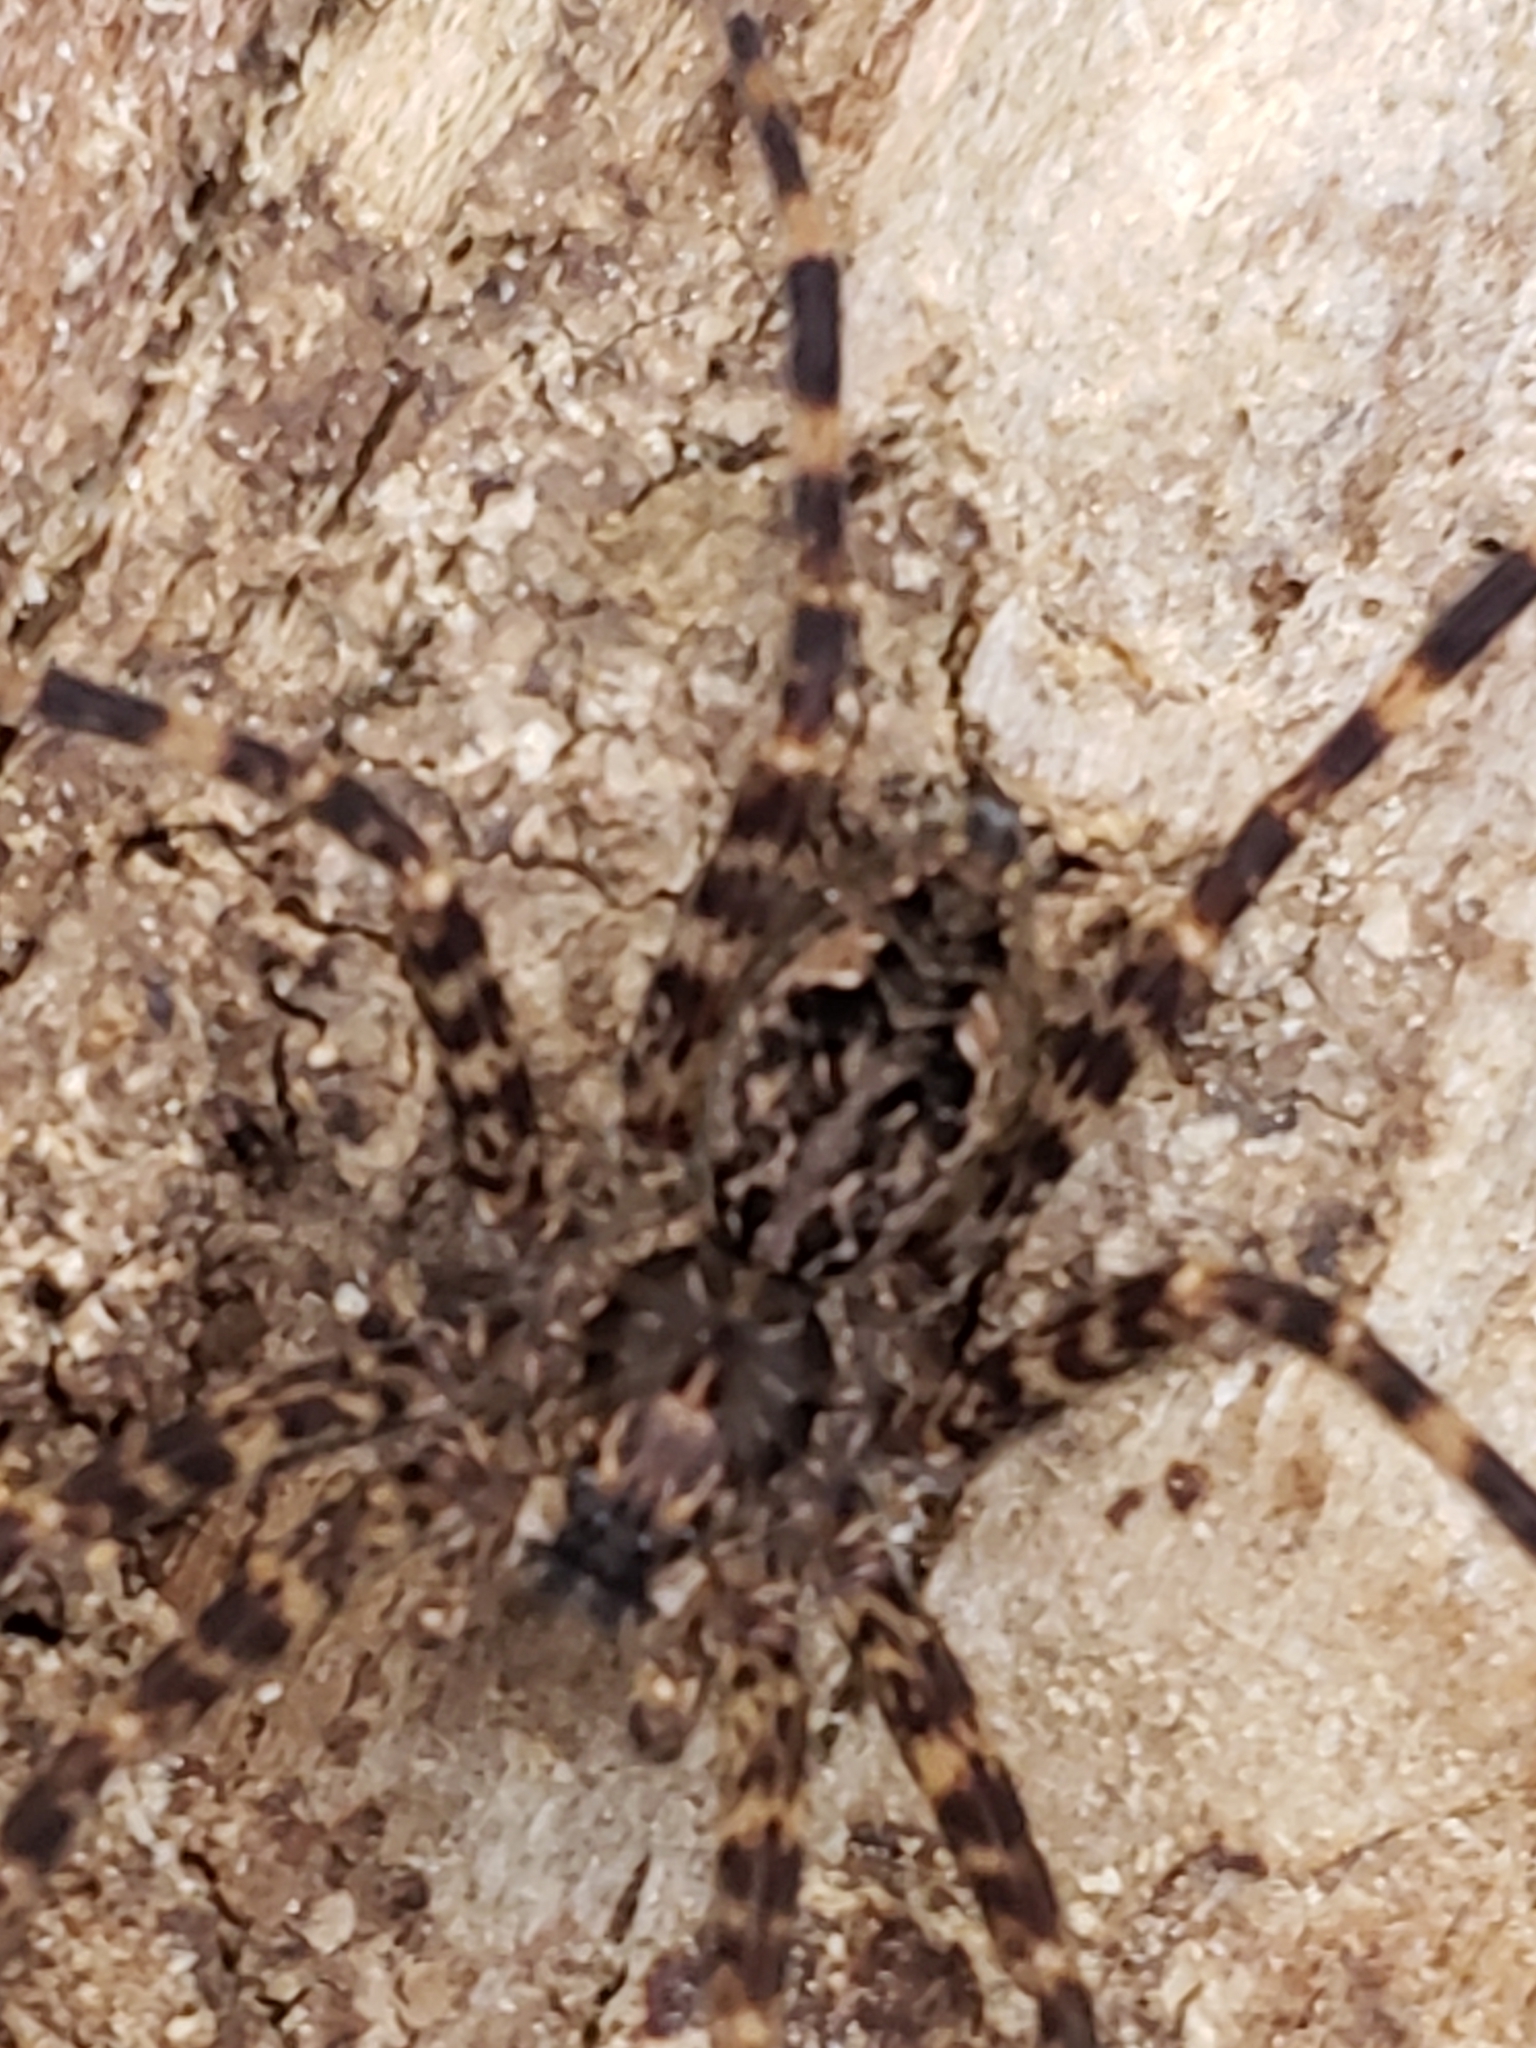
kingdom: Animalia
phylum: Arthropoda
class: Arachnida
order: Araneae
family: Pisauridae
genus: Dolomedes
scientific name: Dolomedes tenebrosus
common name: Dark fishing spider
